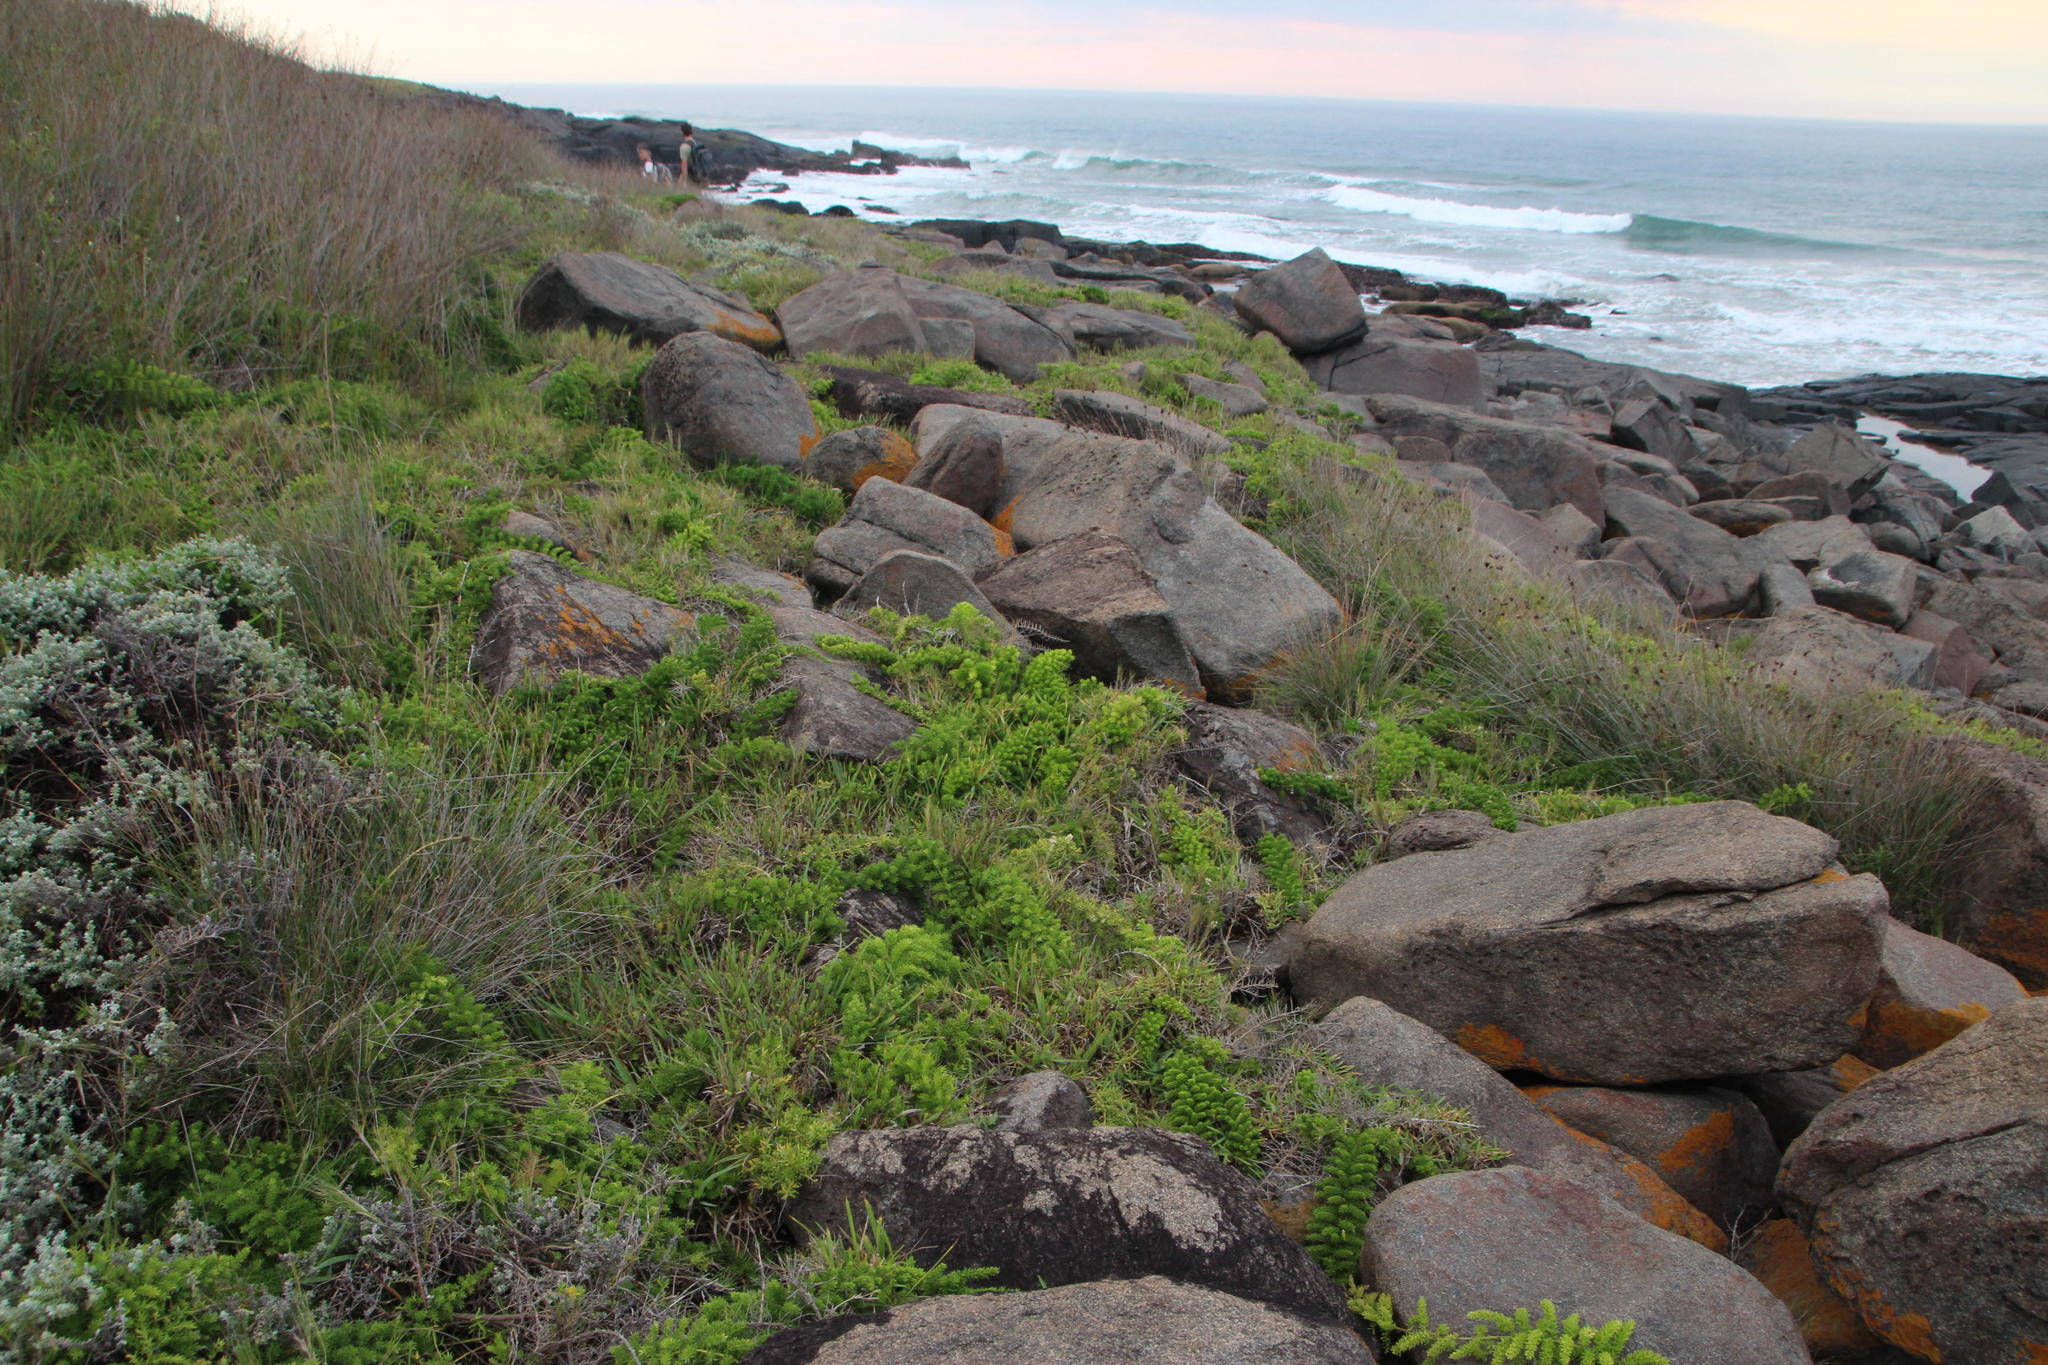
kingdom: Plantae
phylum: Tracheophyta
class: Liliopsida
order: Asparagales
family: Asparagaceae
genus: Asparagus
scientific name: Asparagus densiflorus
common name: Asparagus fern
